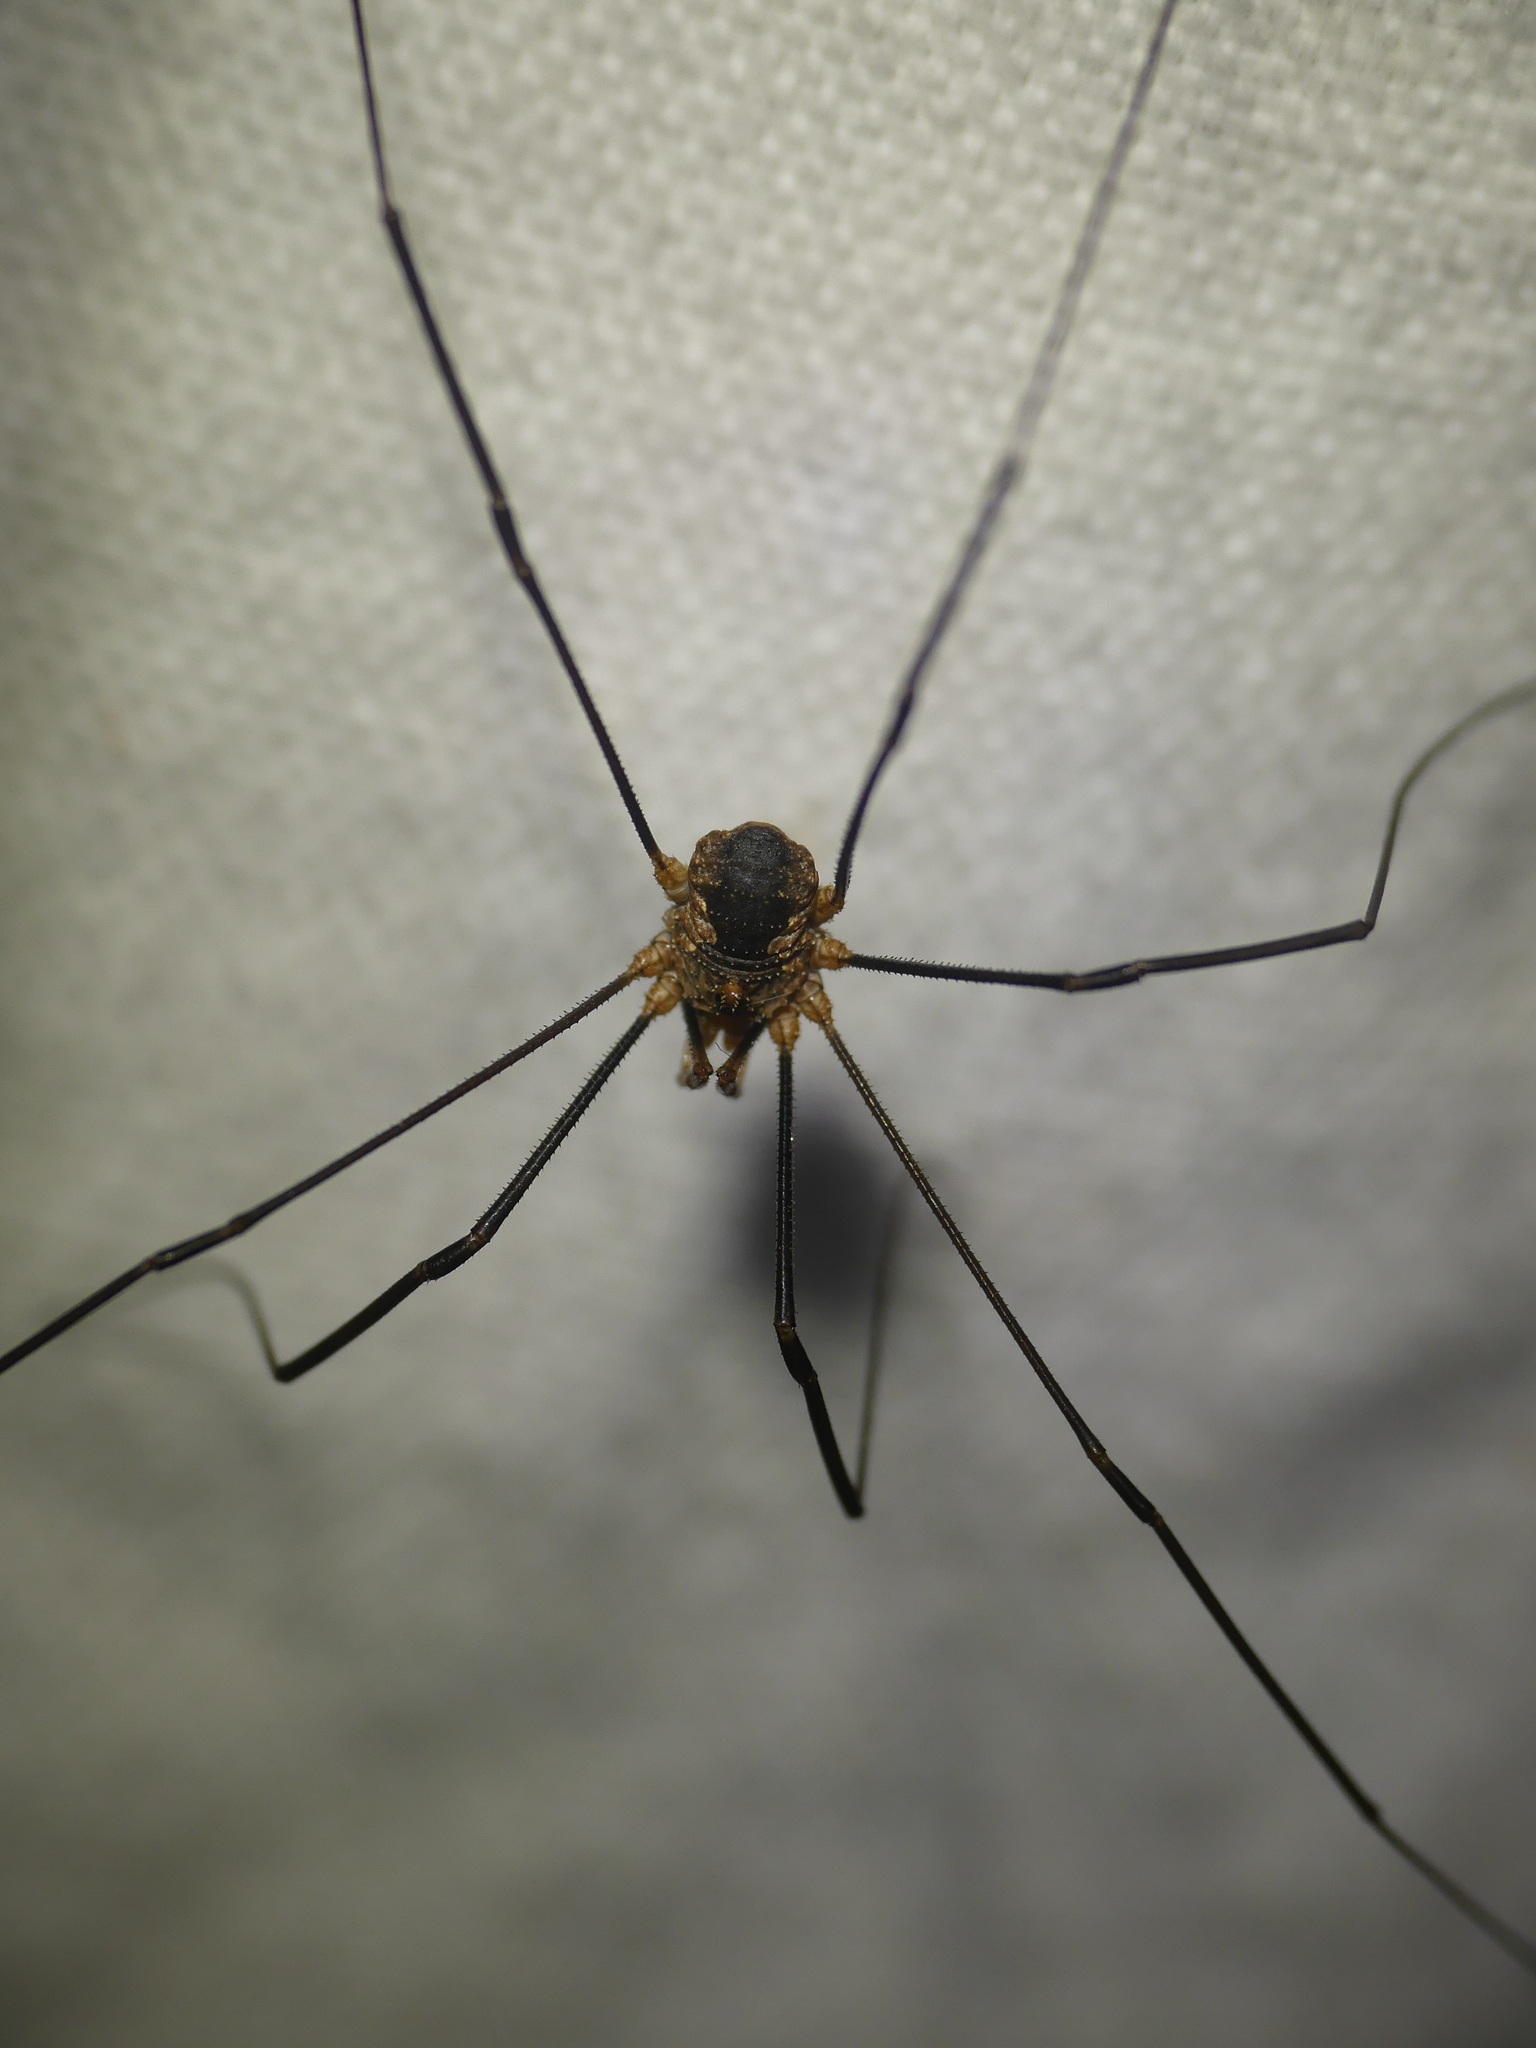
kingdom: Animalia
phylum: Arthropoda
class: Arachnida
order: Opiliones
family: Phalangiidae
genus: Phalangium
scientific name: Phalangium opilio
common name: Daddy longleg
